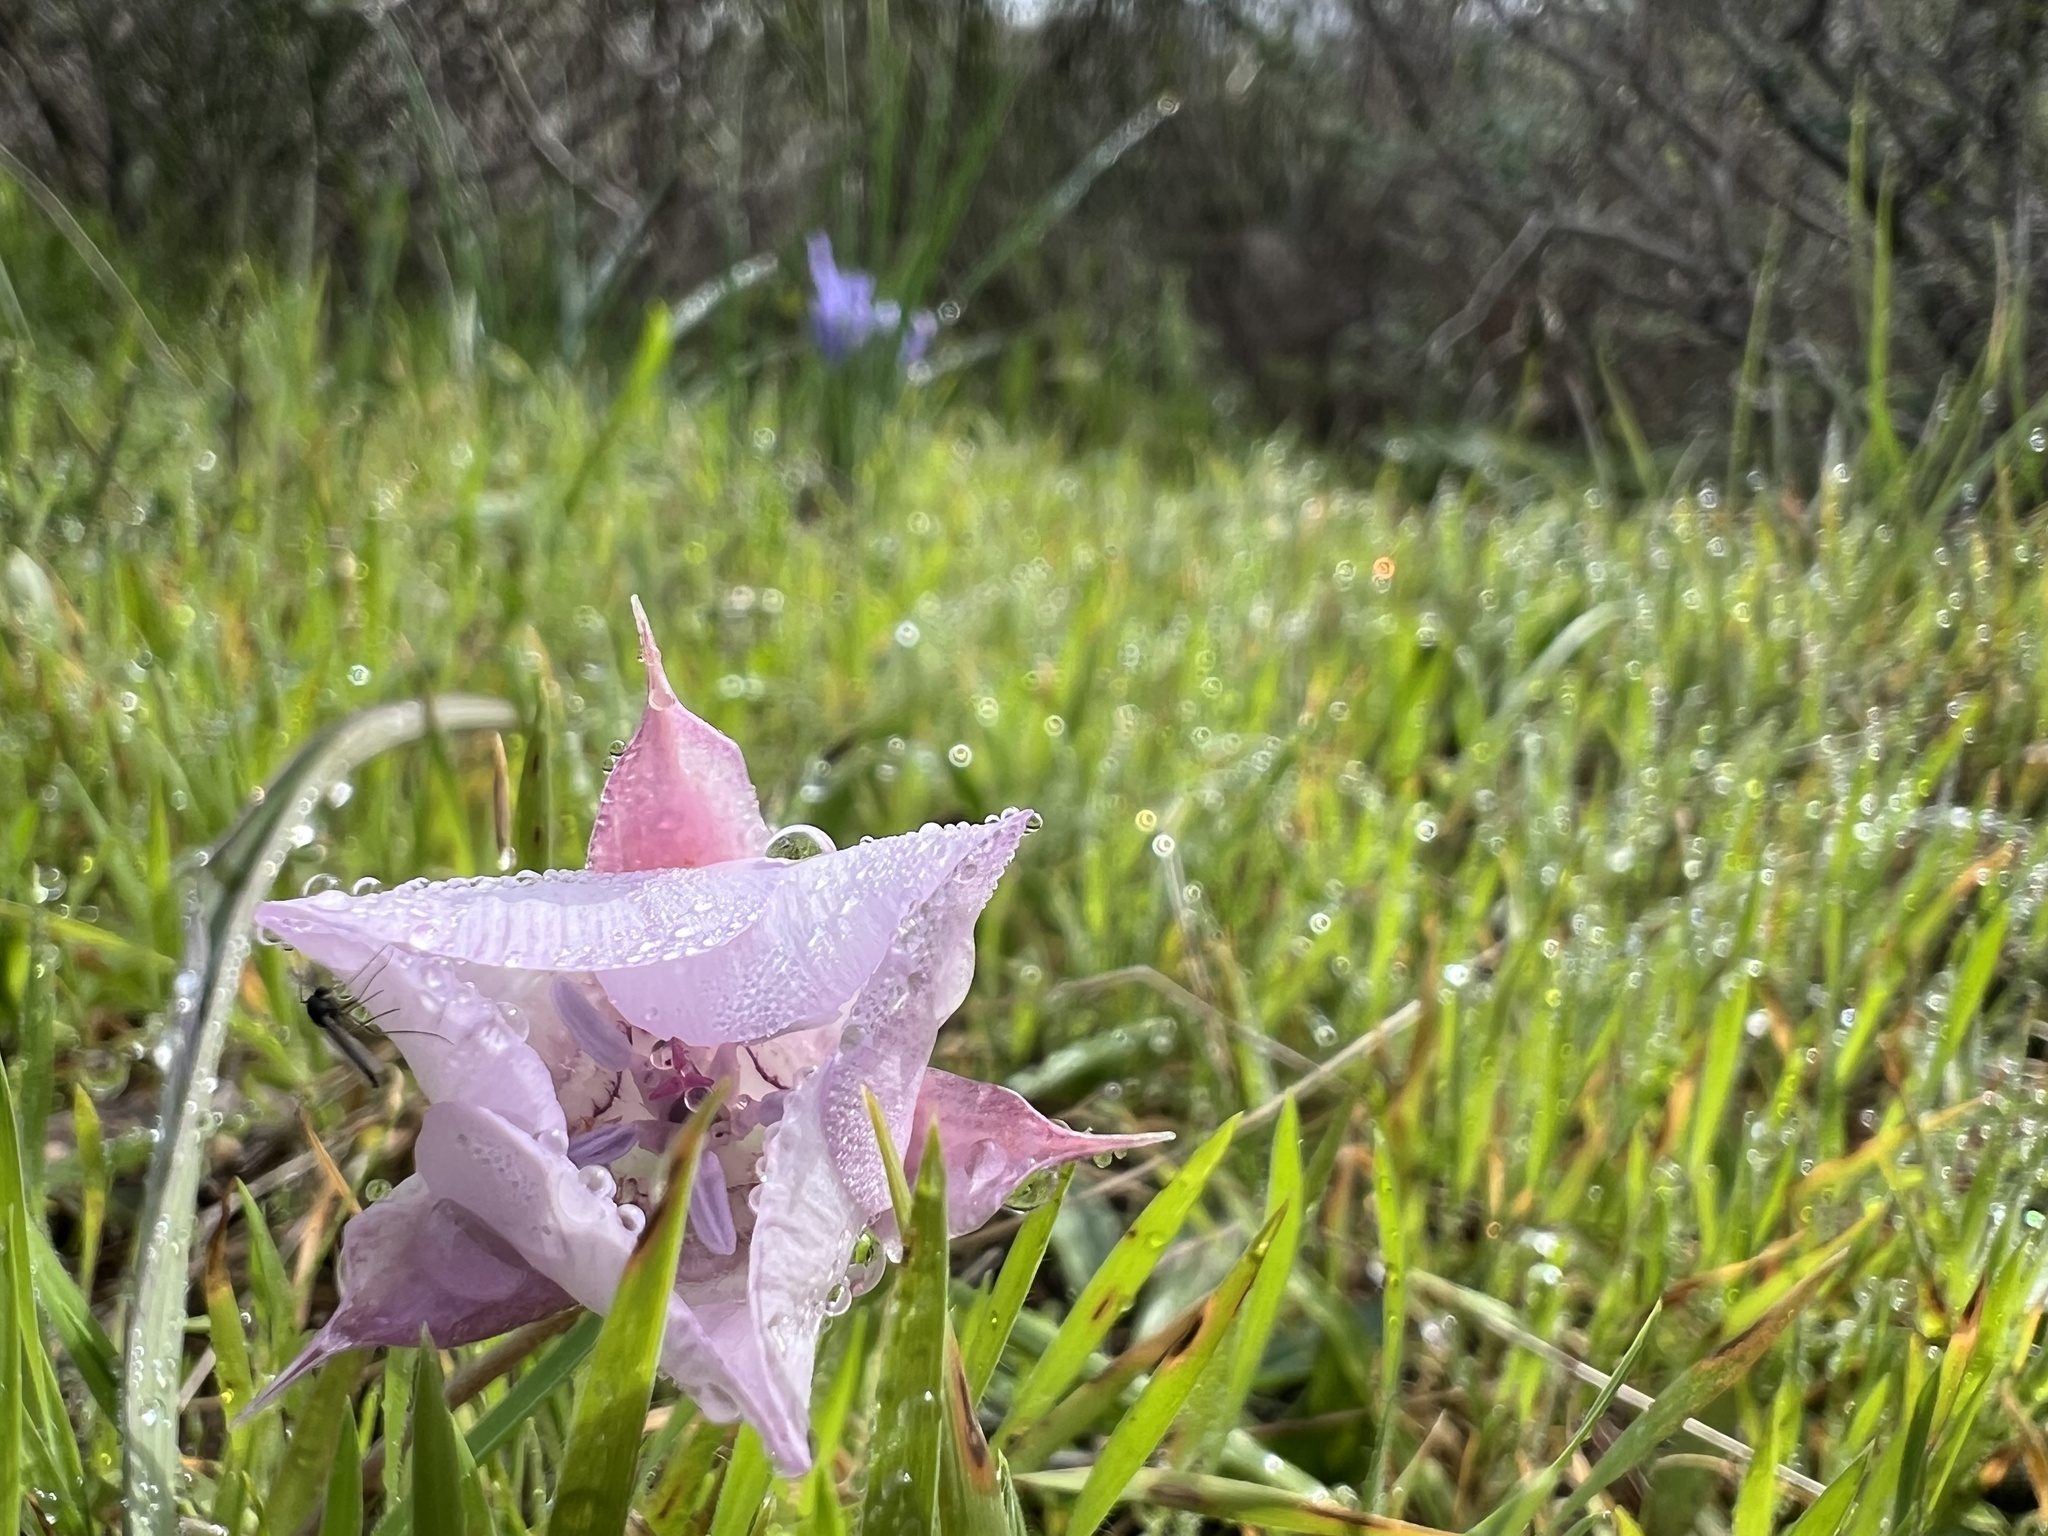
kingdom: Plantae
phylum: Tracheophyta
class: Liliopsida
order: Liliales
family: Liliaceae
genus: Calochortus
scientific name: Calochortus umbellatus
